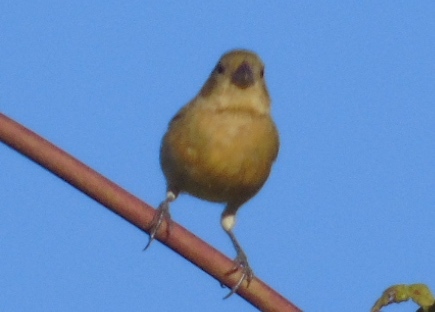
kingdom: Animalia
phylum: Chordata
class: Aves
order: Passeriformes
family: Thraupidae
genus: Sporophila
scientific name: Sporophila torqueola
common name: White-collared seedeater
